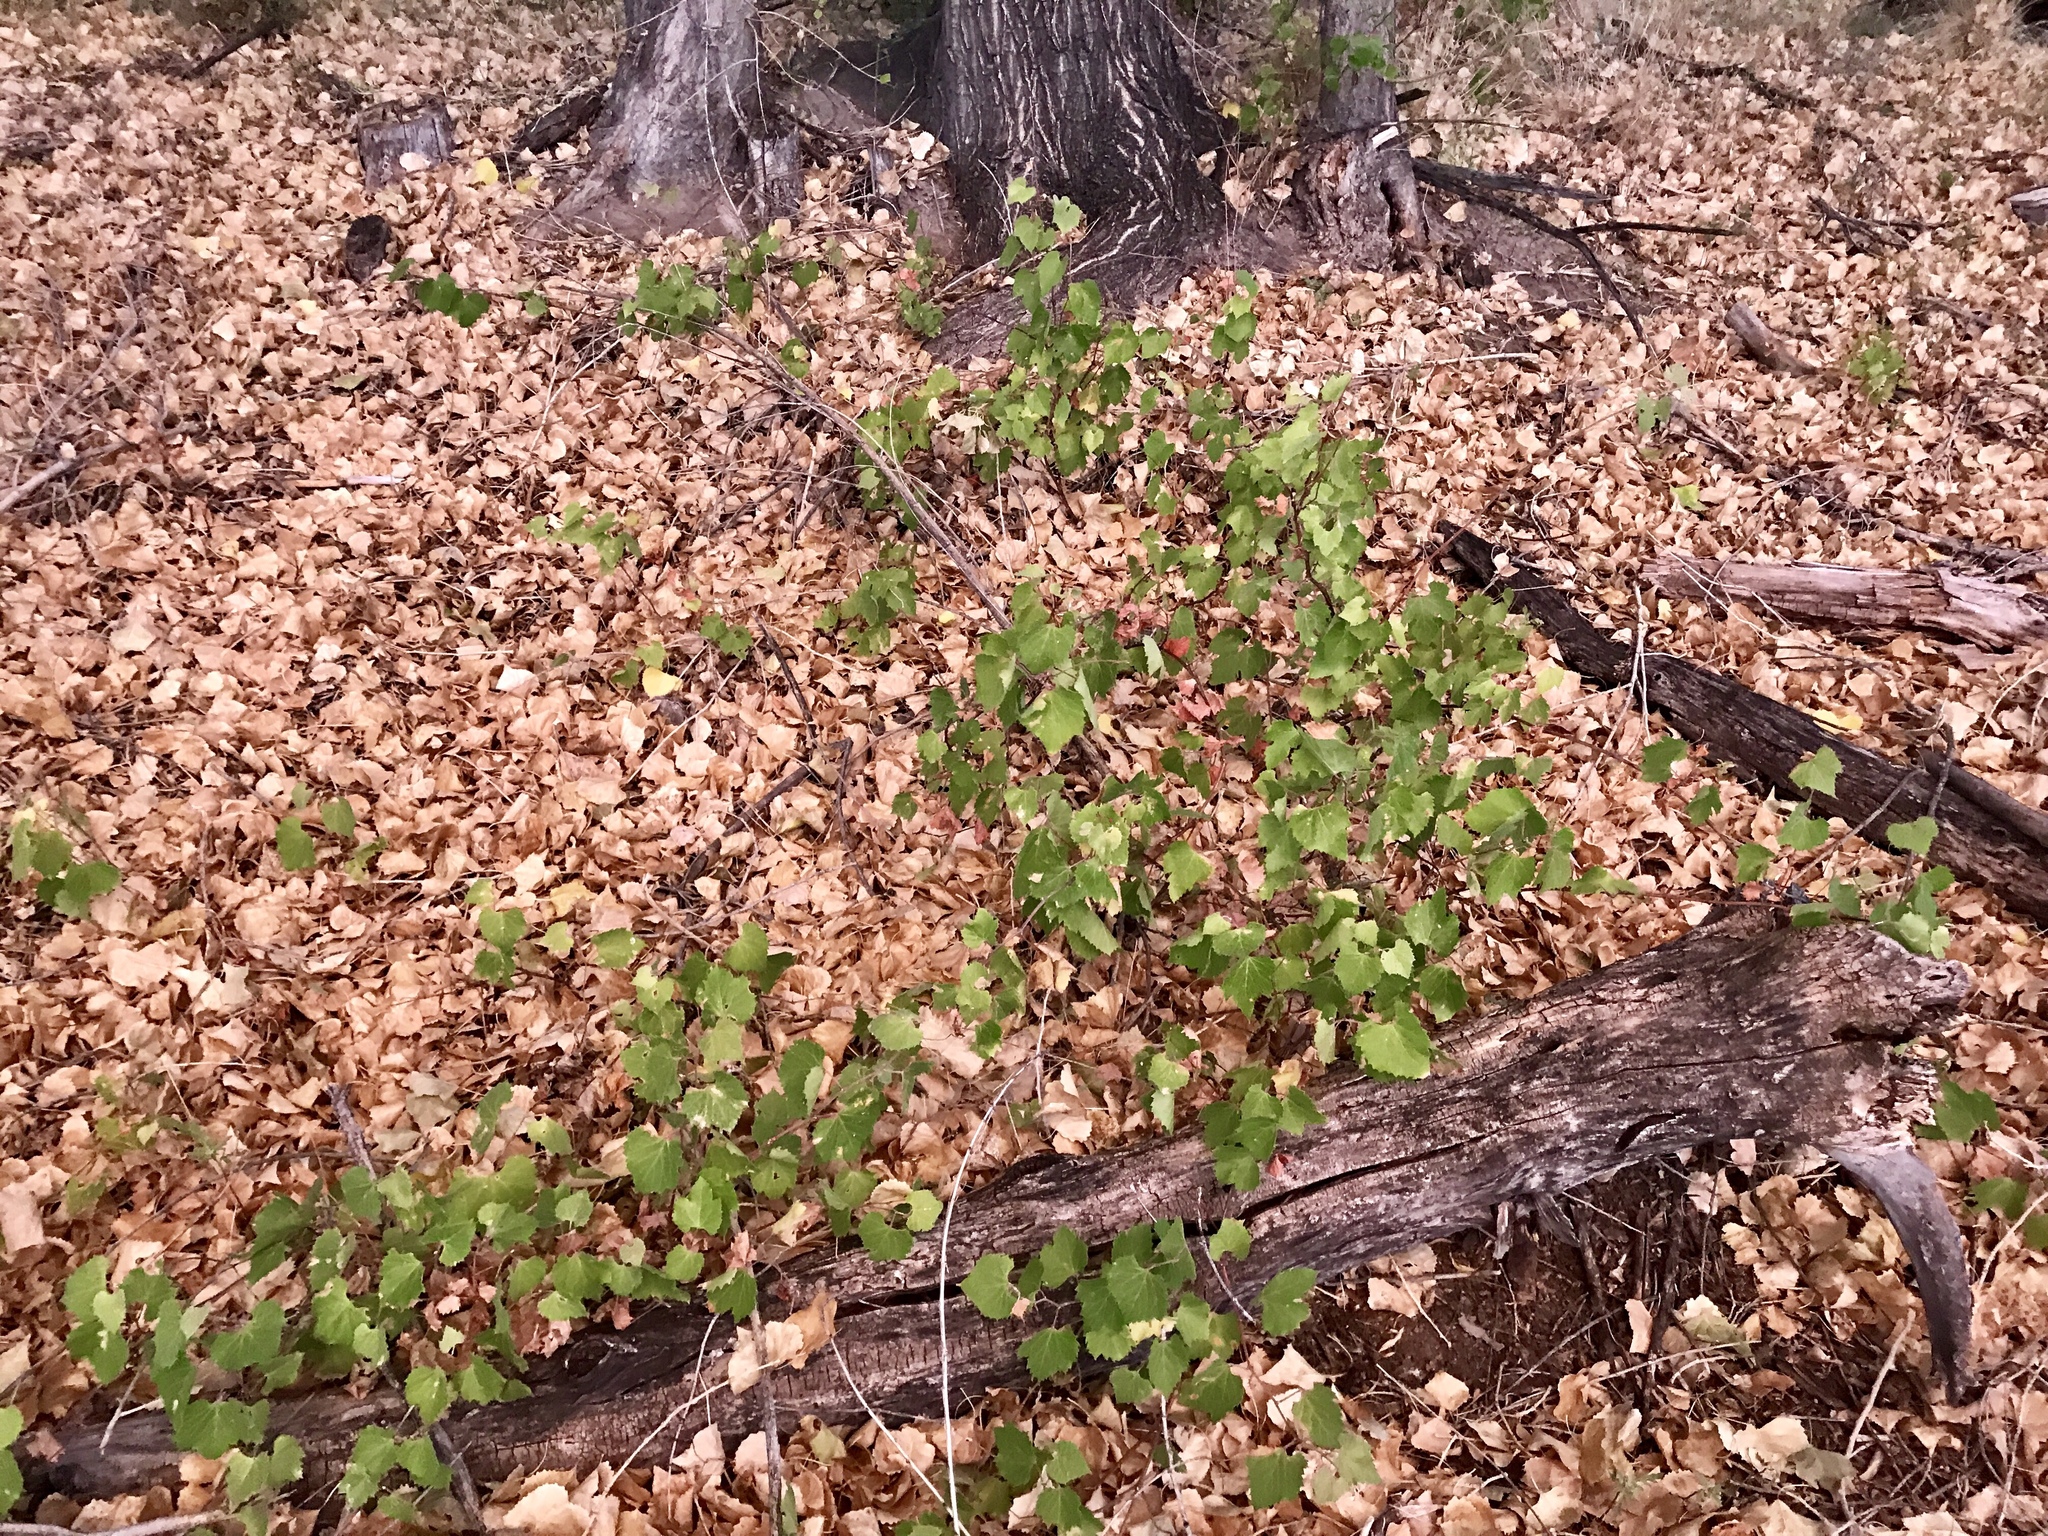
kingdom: Plantae
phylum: Tracheophyta
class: Magnoliopsida
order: Vitales
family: Vitaceae
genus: Vitis
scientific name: Vitis arizonica
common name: Canyon grape
